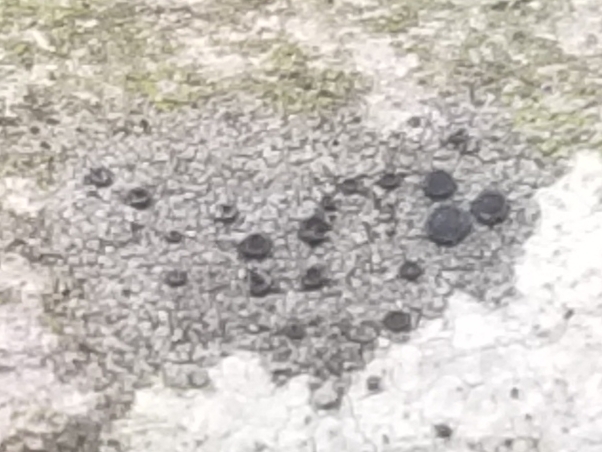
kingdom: Fungi
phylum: Ascomycota
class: Lecanoromycetes
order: Caliciales
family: Caliciaceae
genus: Buellia
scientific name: Buellia erubescens
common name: Common button lichen
